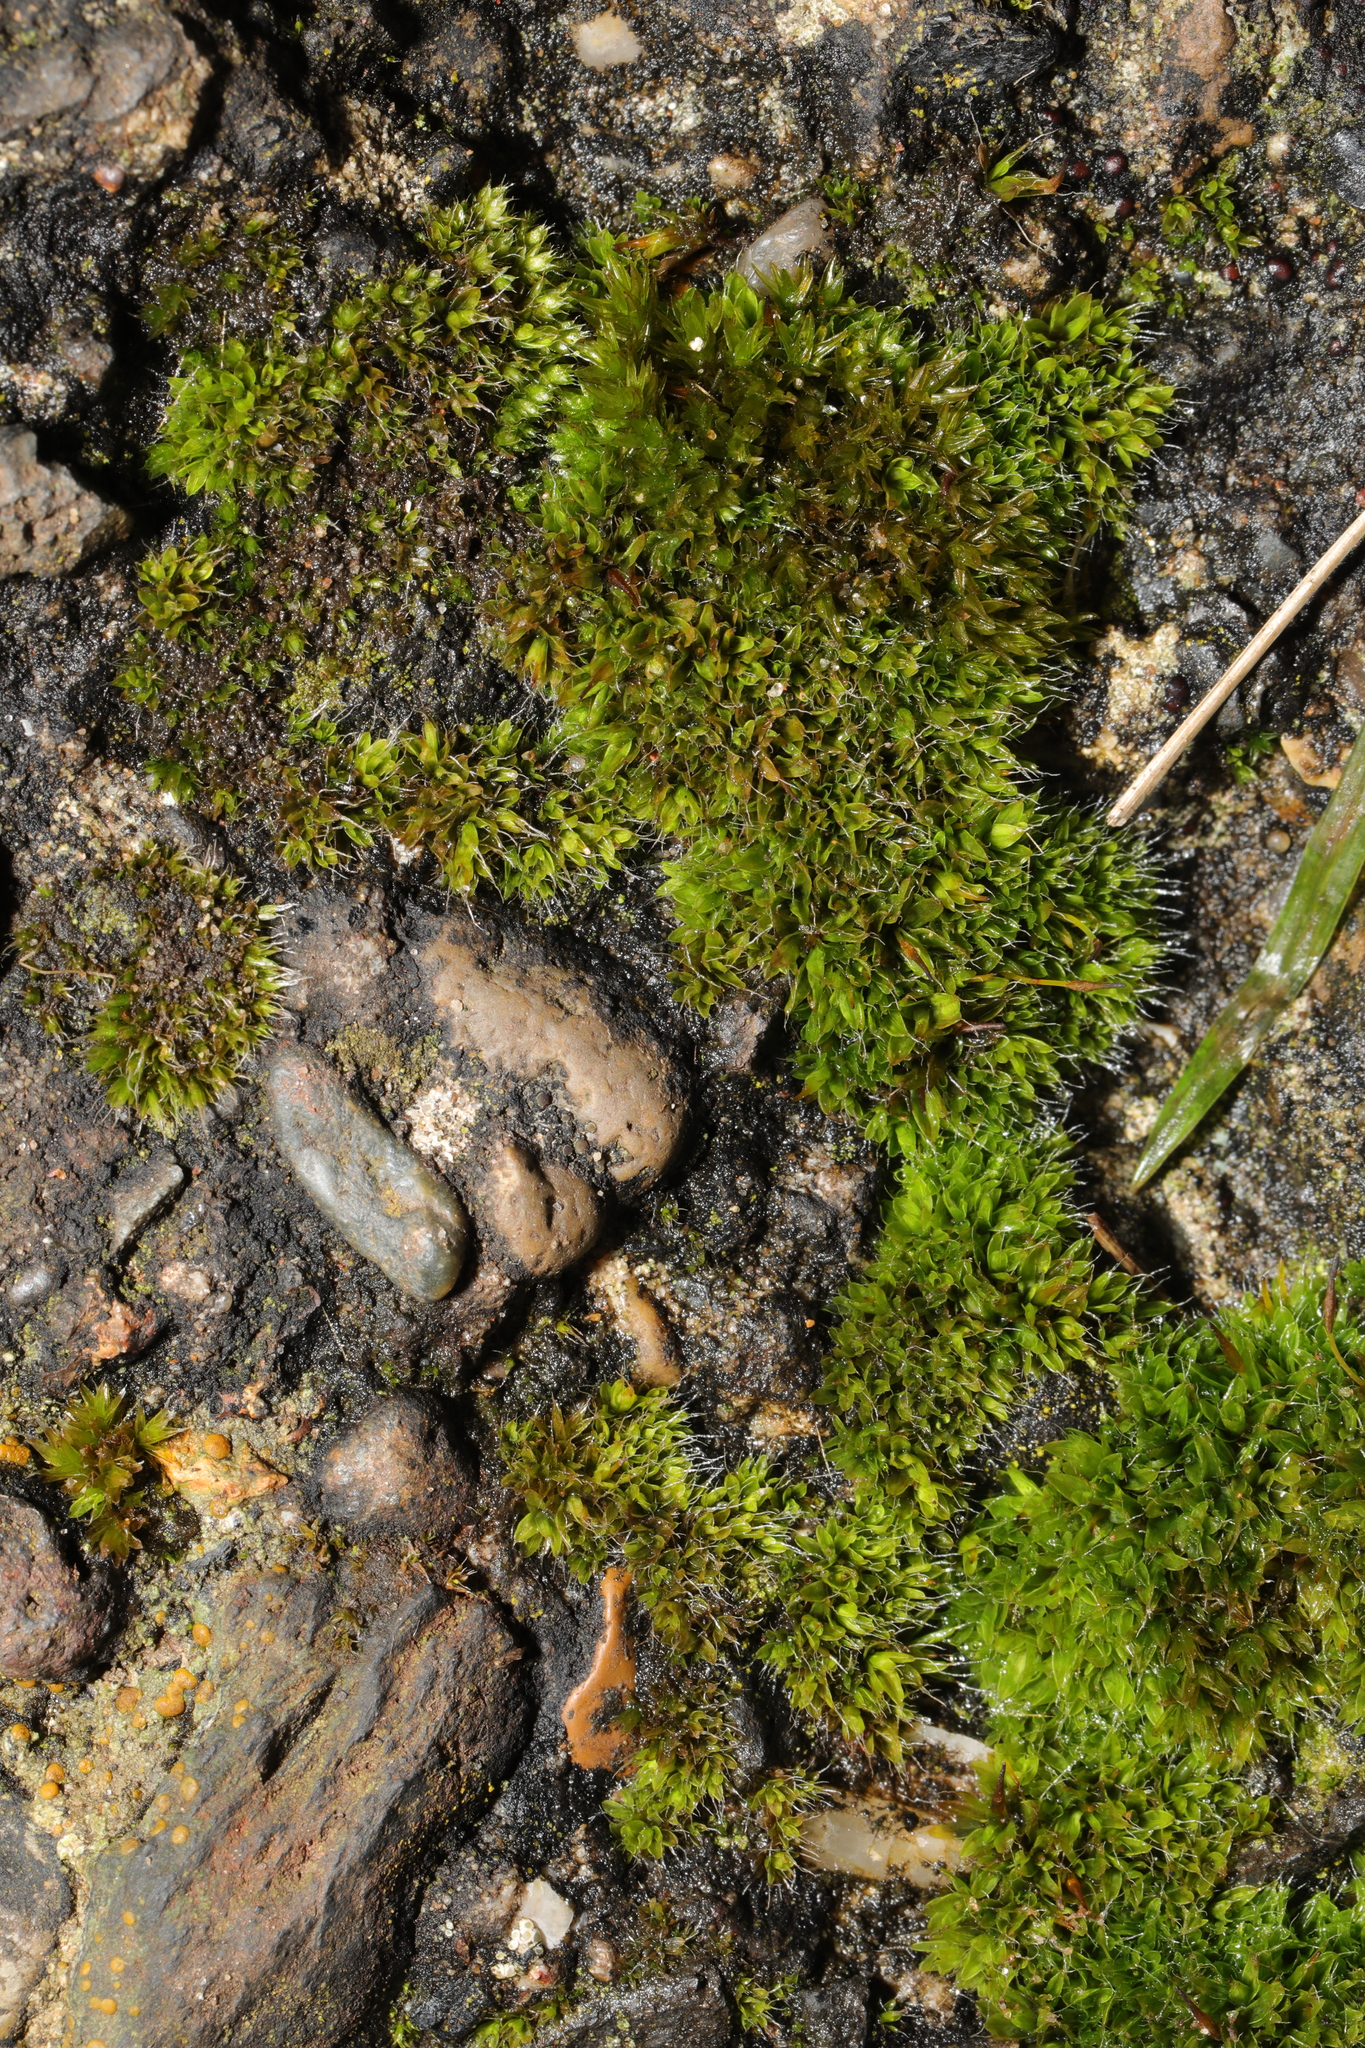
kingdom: Plantae
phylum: Bryophyta
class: Bryopsida
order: Pottiales
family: Pottiaceae
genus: Tortula
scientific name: Tortula muralis
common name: Wall screw-moss
